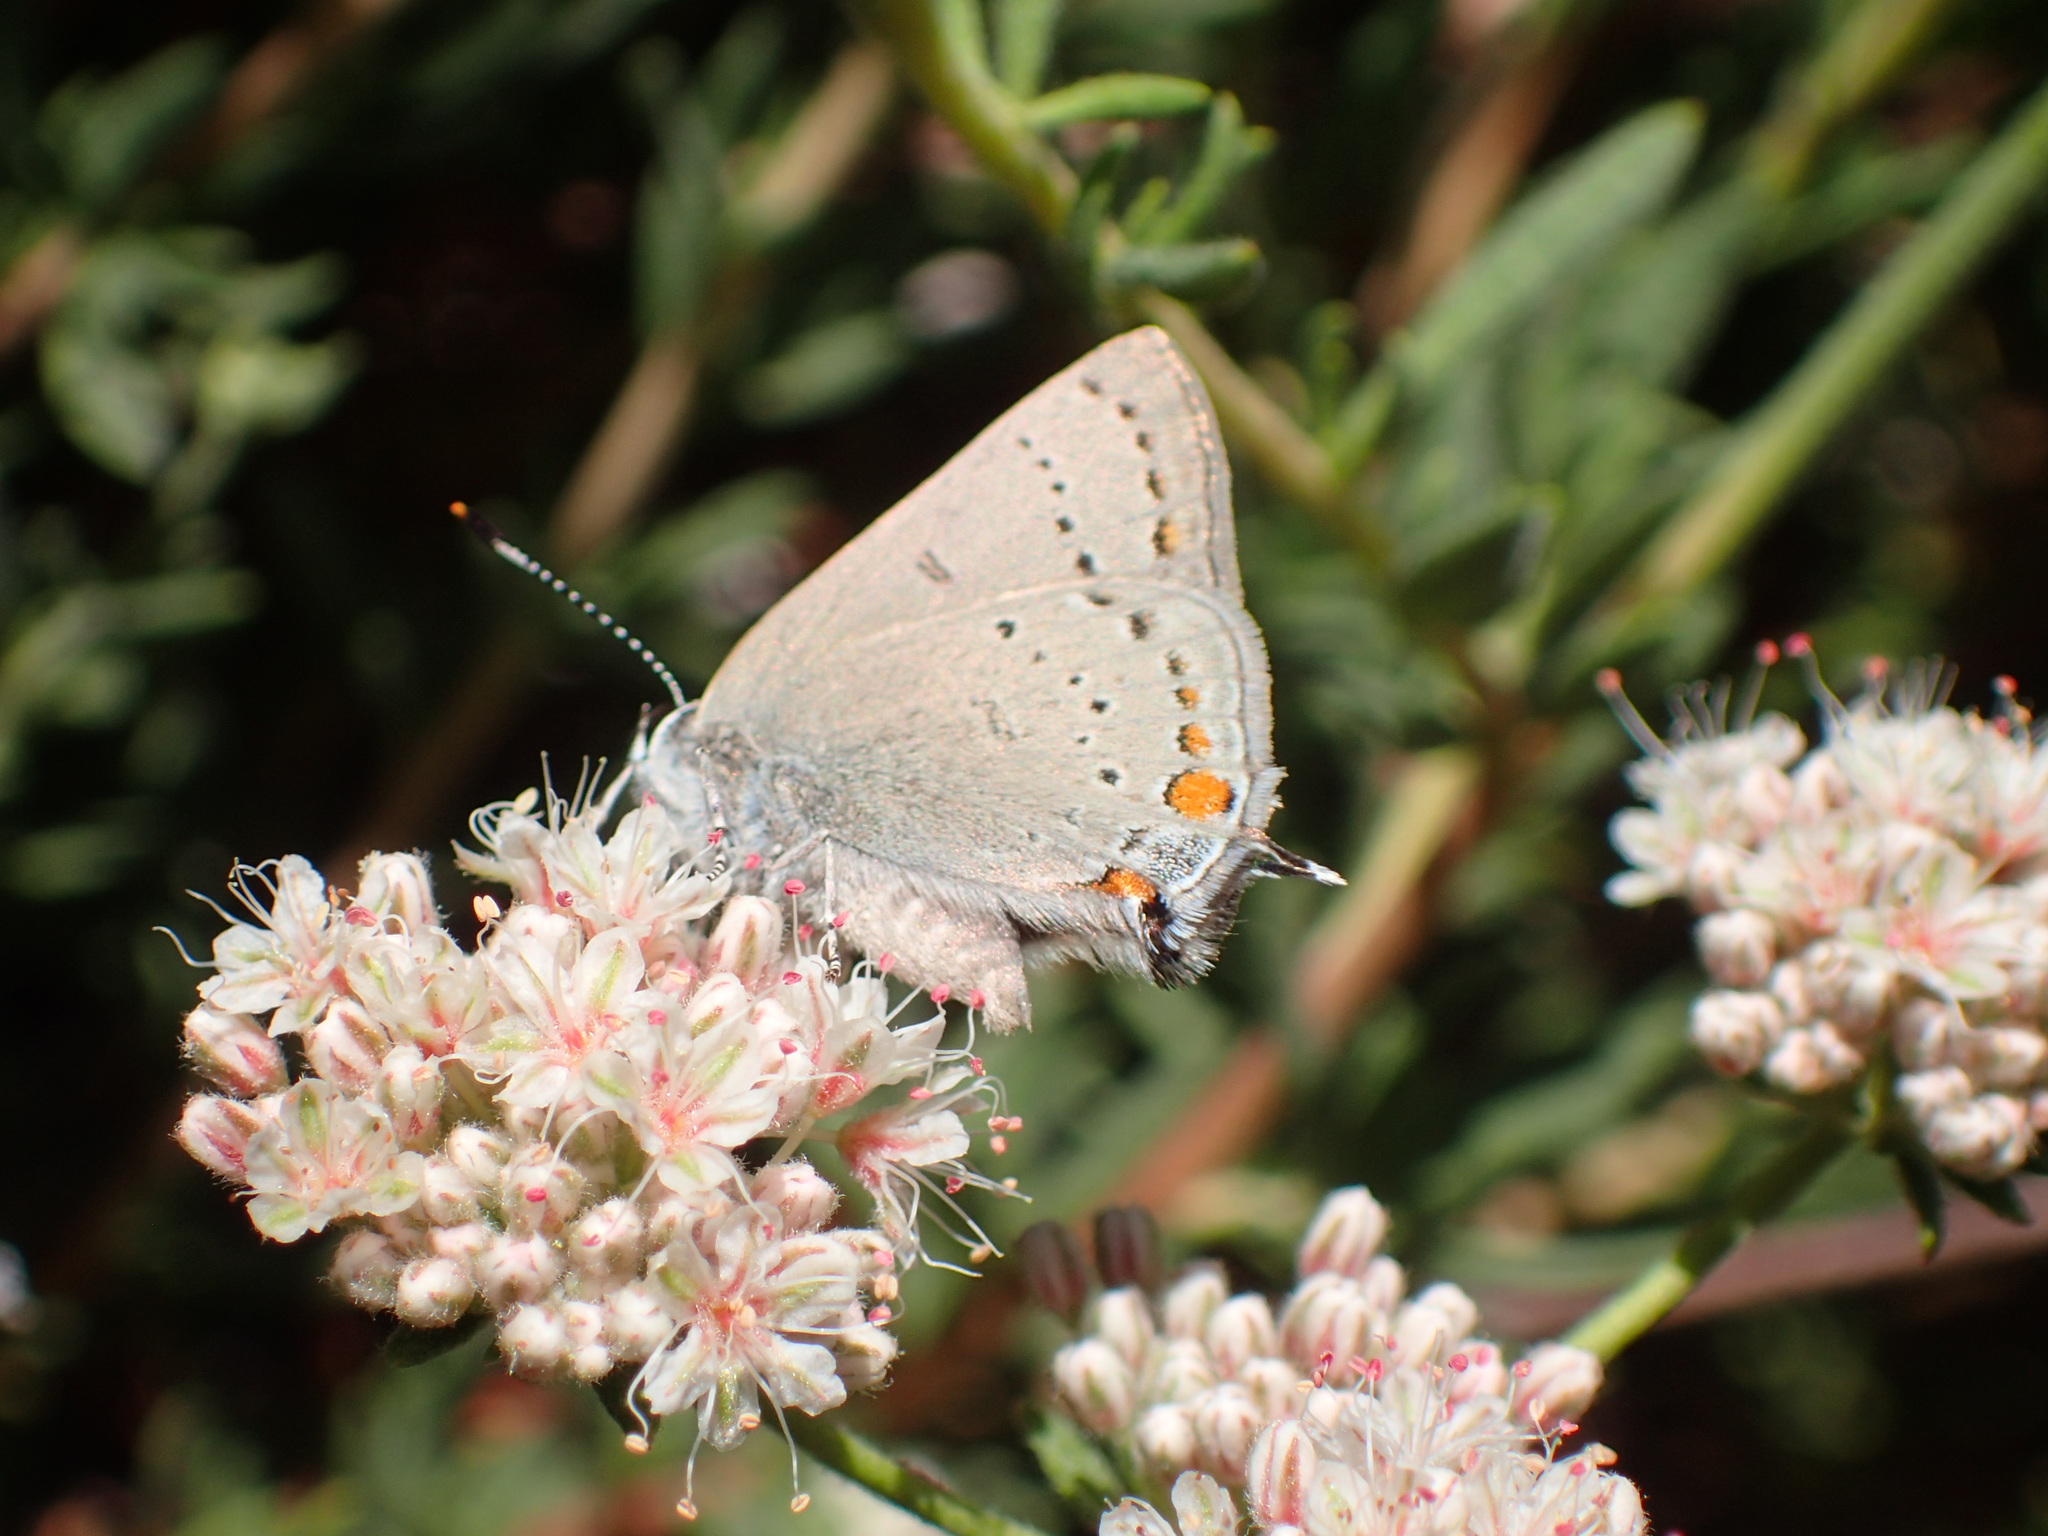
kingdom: Animalia
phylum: Arthropoda
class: Insecta
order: Lepidoptera
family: Lycaenidae
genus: Strymon
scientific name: Strymon acadica
